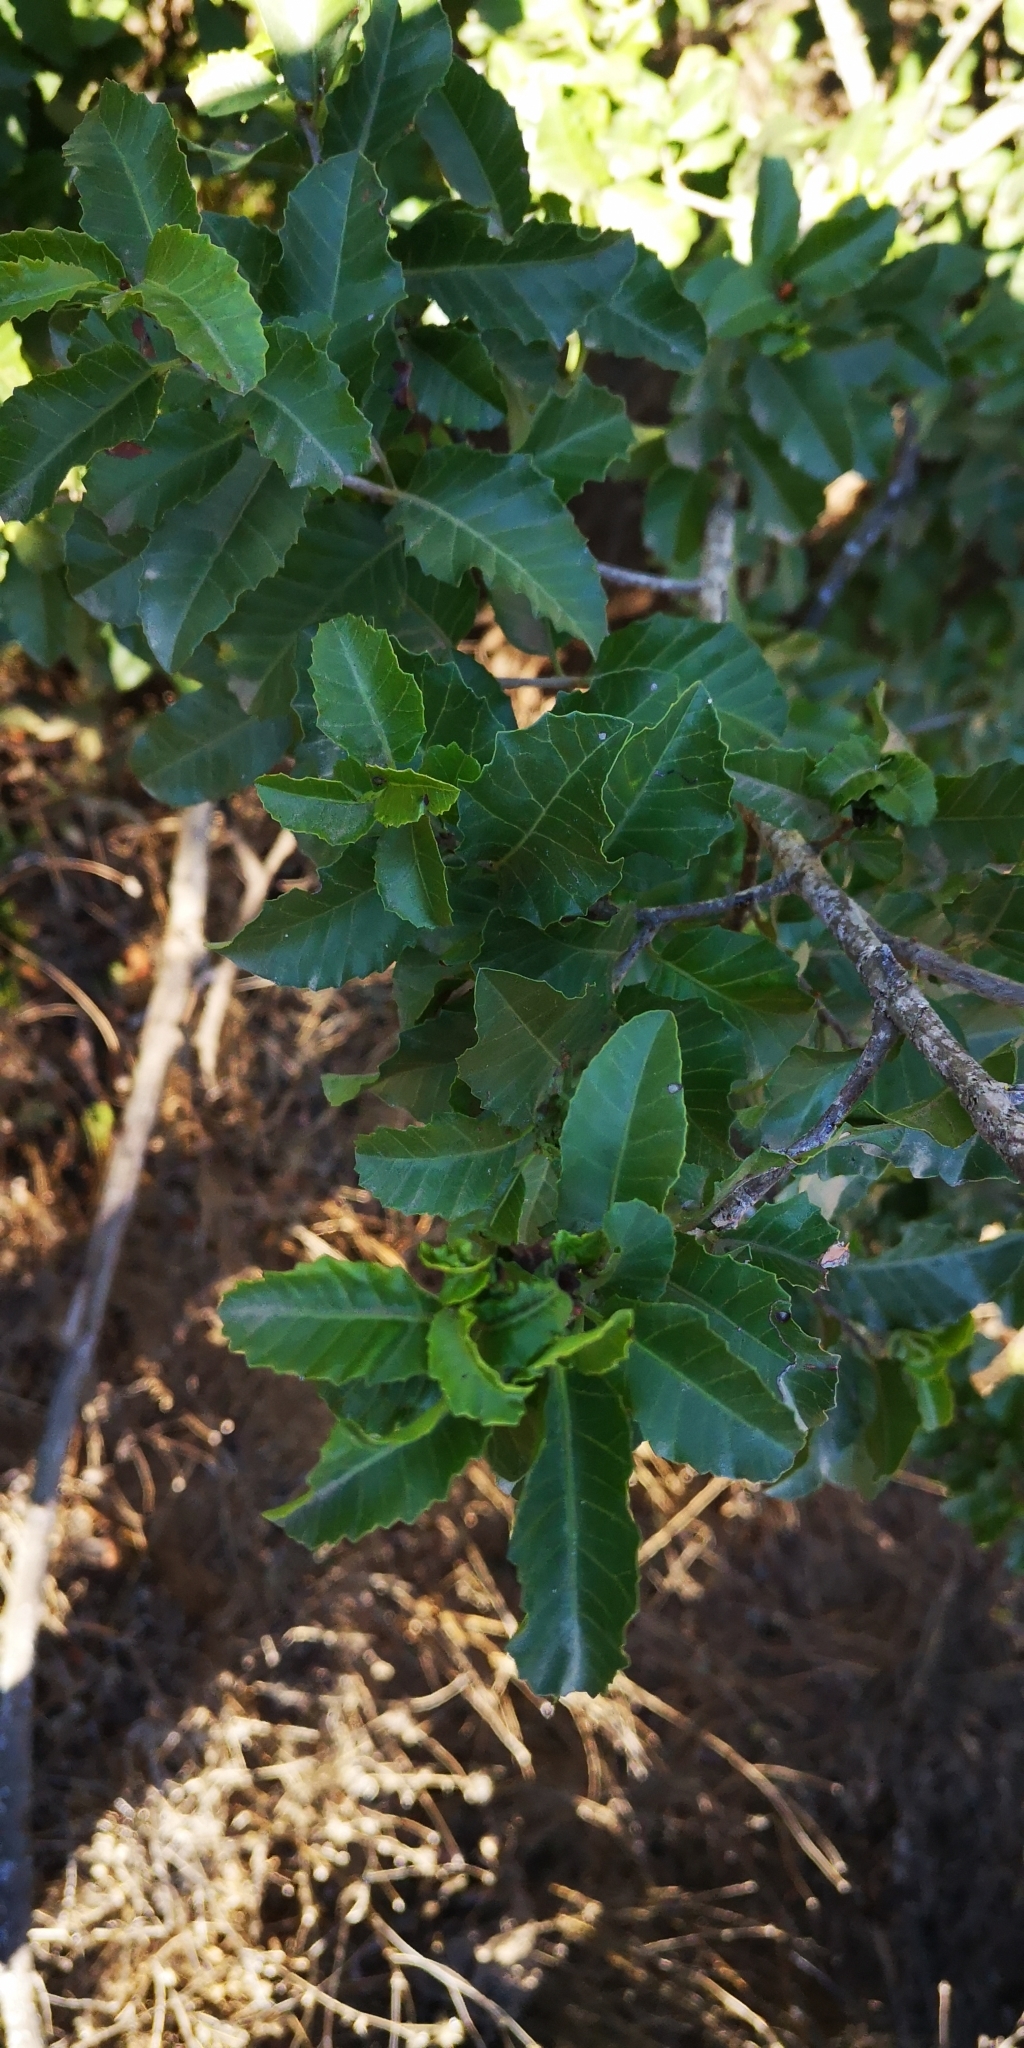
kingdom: Plantae
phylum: Tracheophyta
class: Magnoliopsida
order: Sapindales
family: Anacardiaceae
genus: Schinus
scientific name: Schinus latifolia
